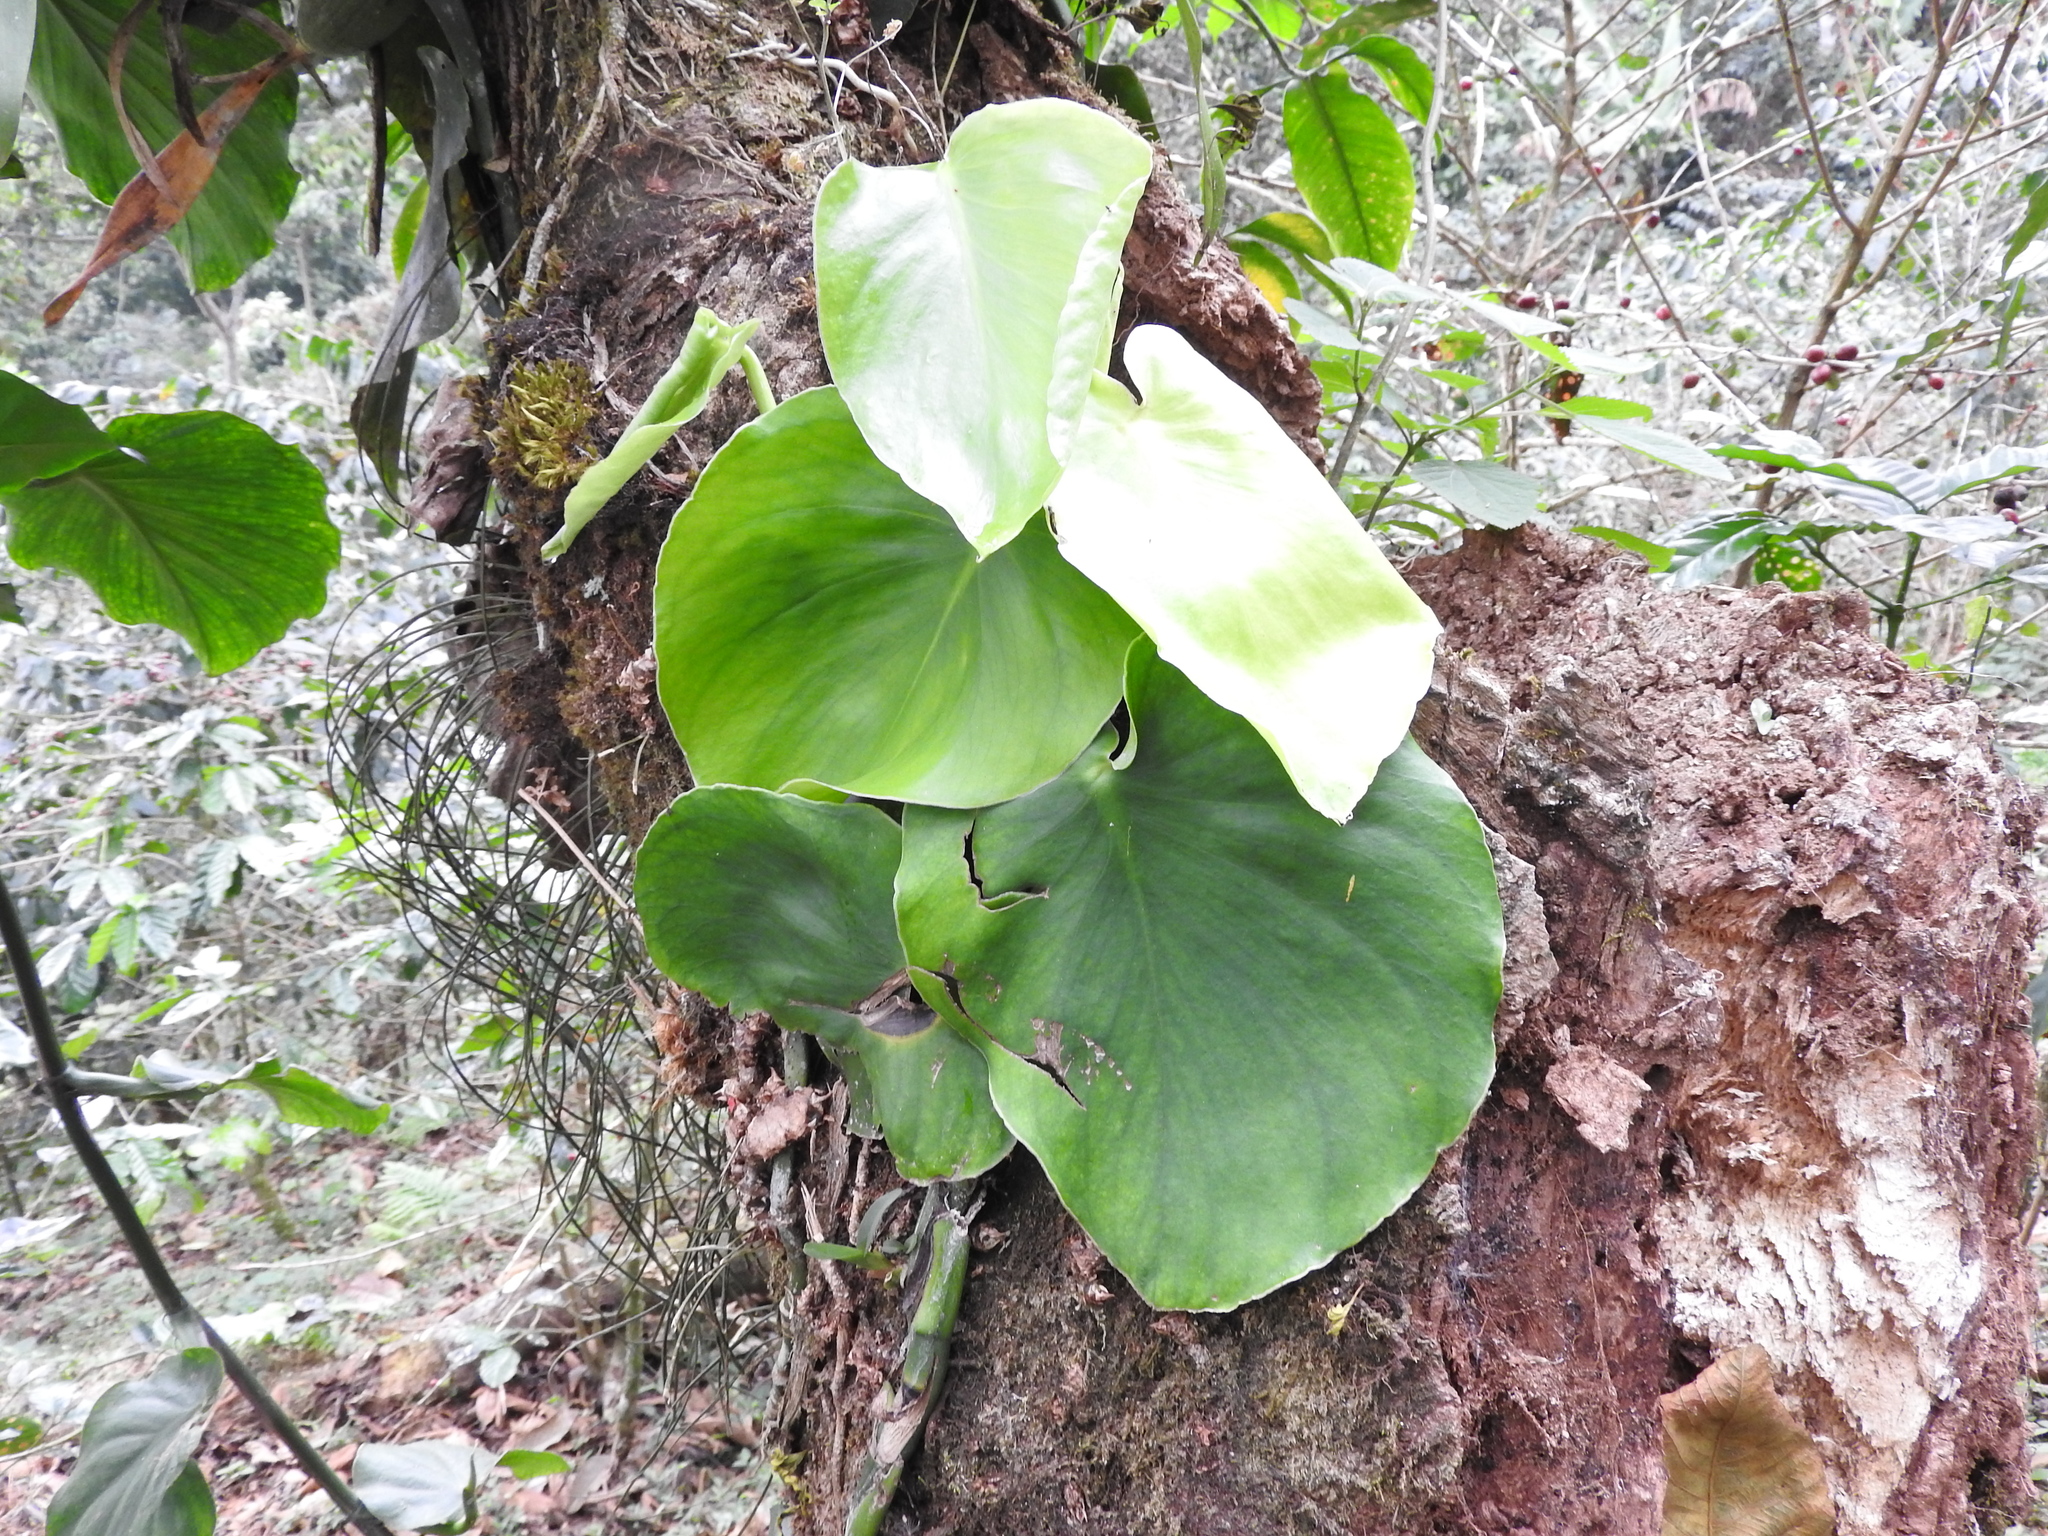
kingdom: Plantae
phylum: Tracheophyta
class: Liliopsida
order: Alismatales
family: Araceae
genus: Monstera
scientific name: Monstera acuminata
